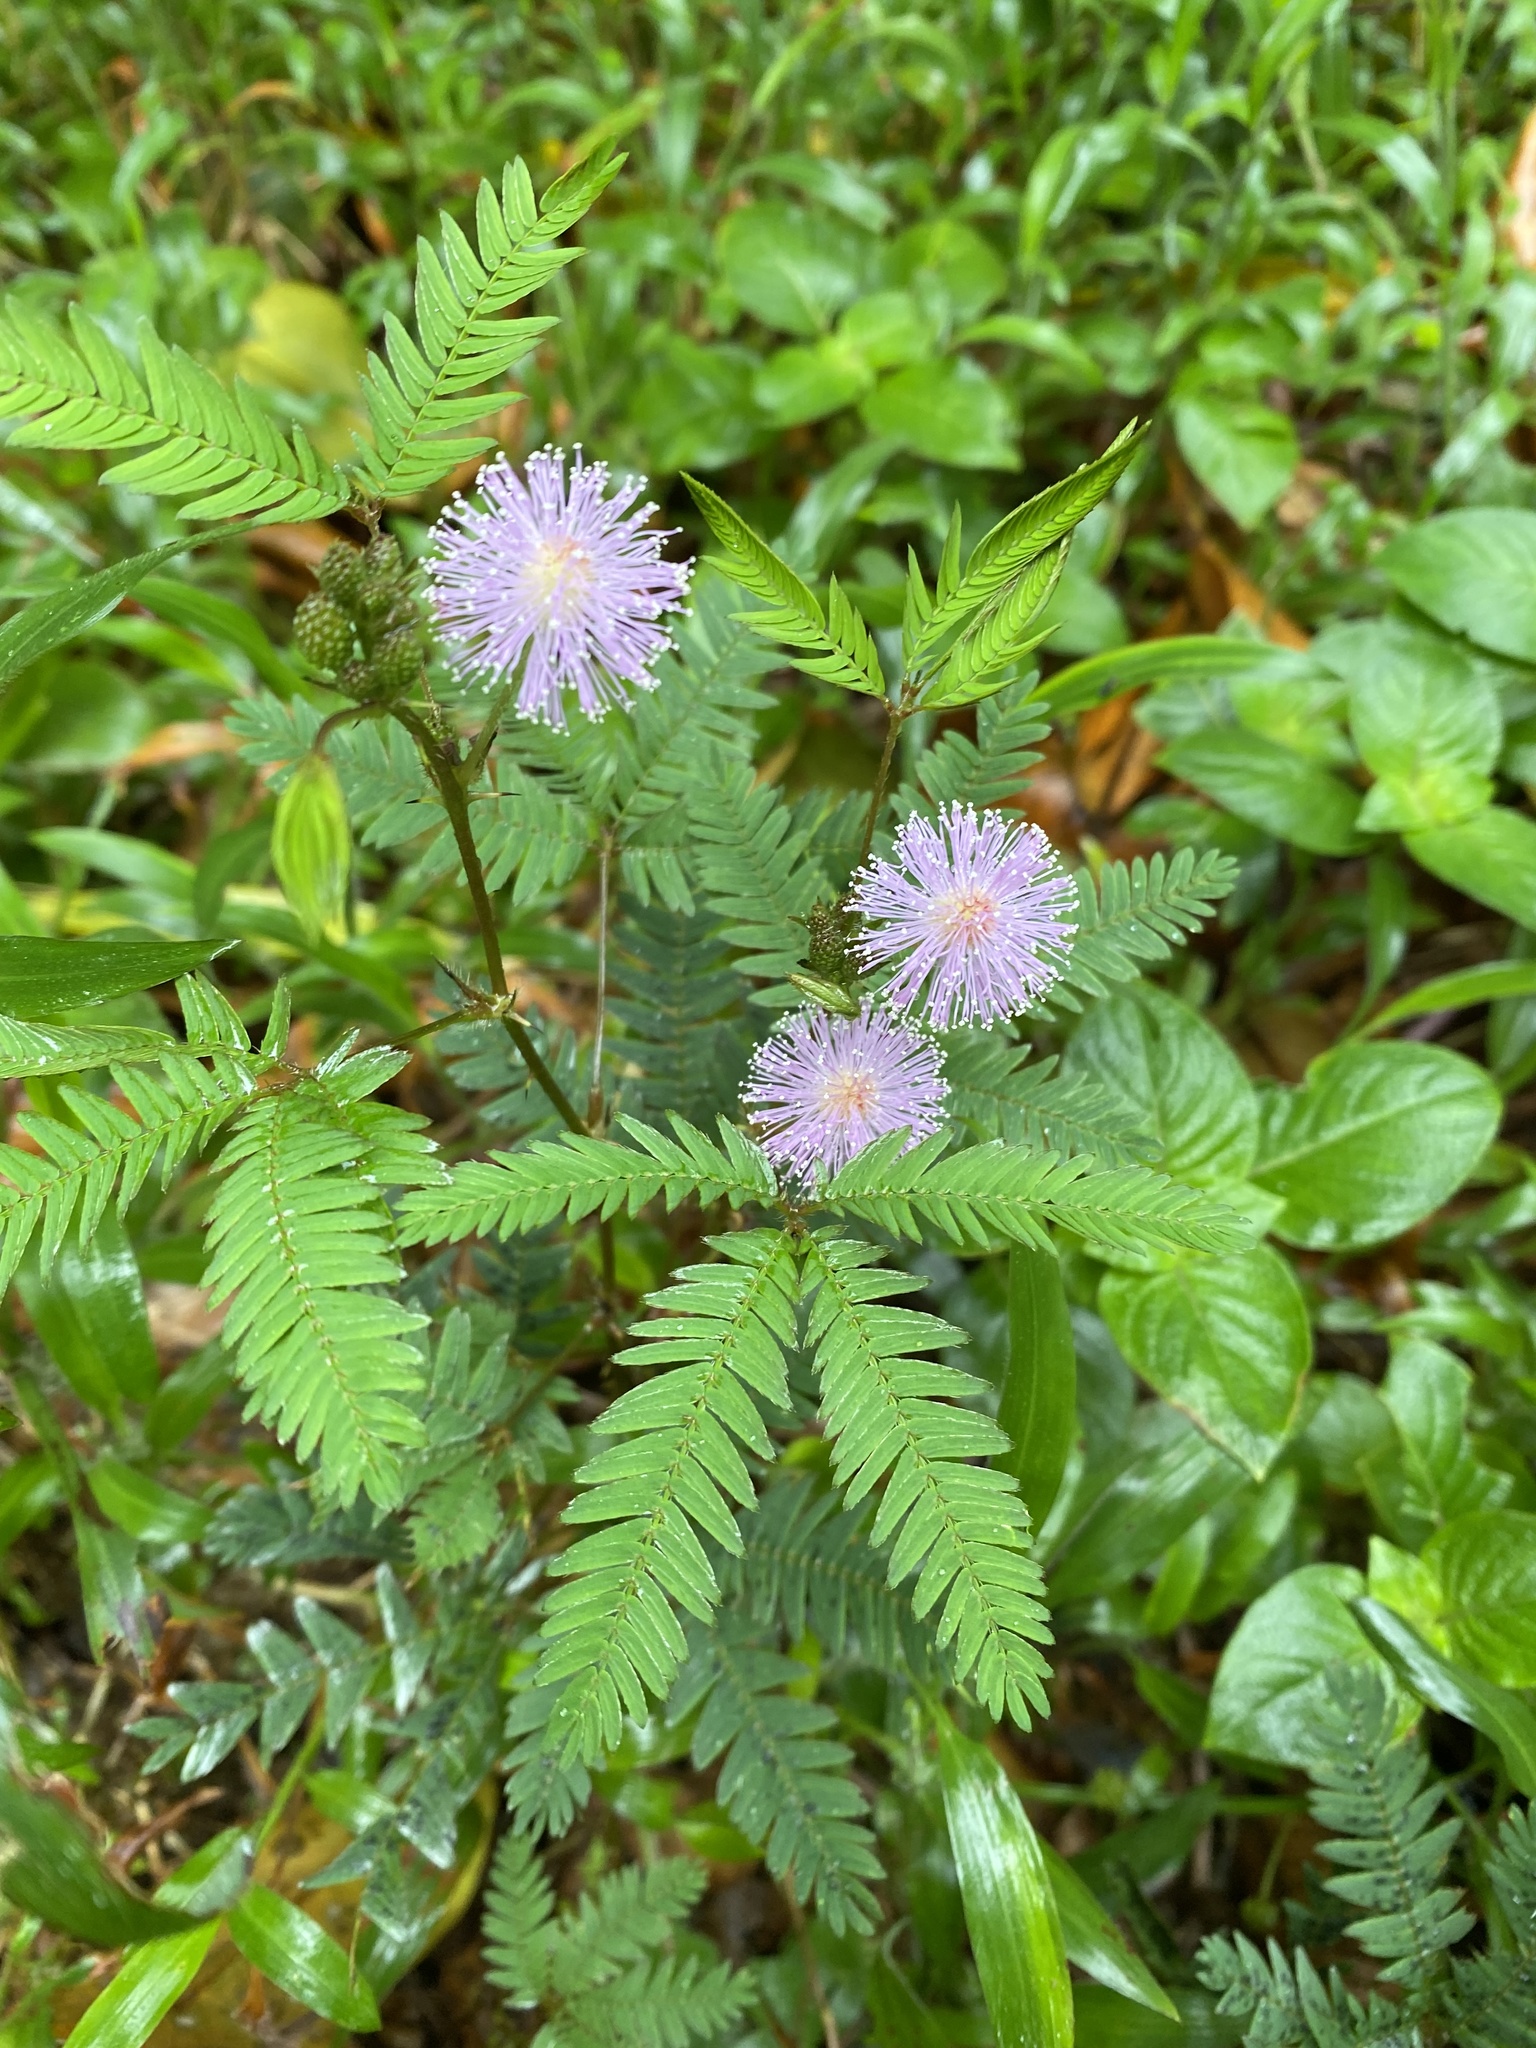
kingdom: Plantae
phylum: Tracheophyta
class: Magnoliopsida
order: Fabales
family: Fabaceae
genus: Mimosa
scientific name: Mimosa pudica
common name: Sensitive plant
